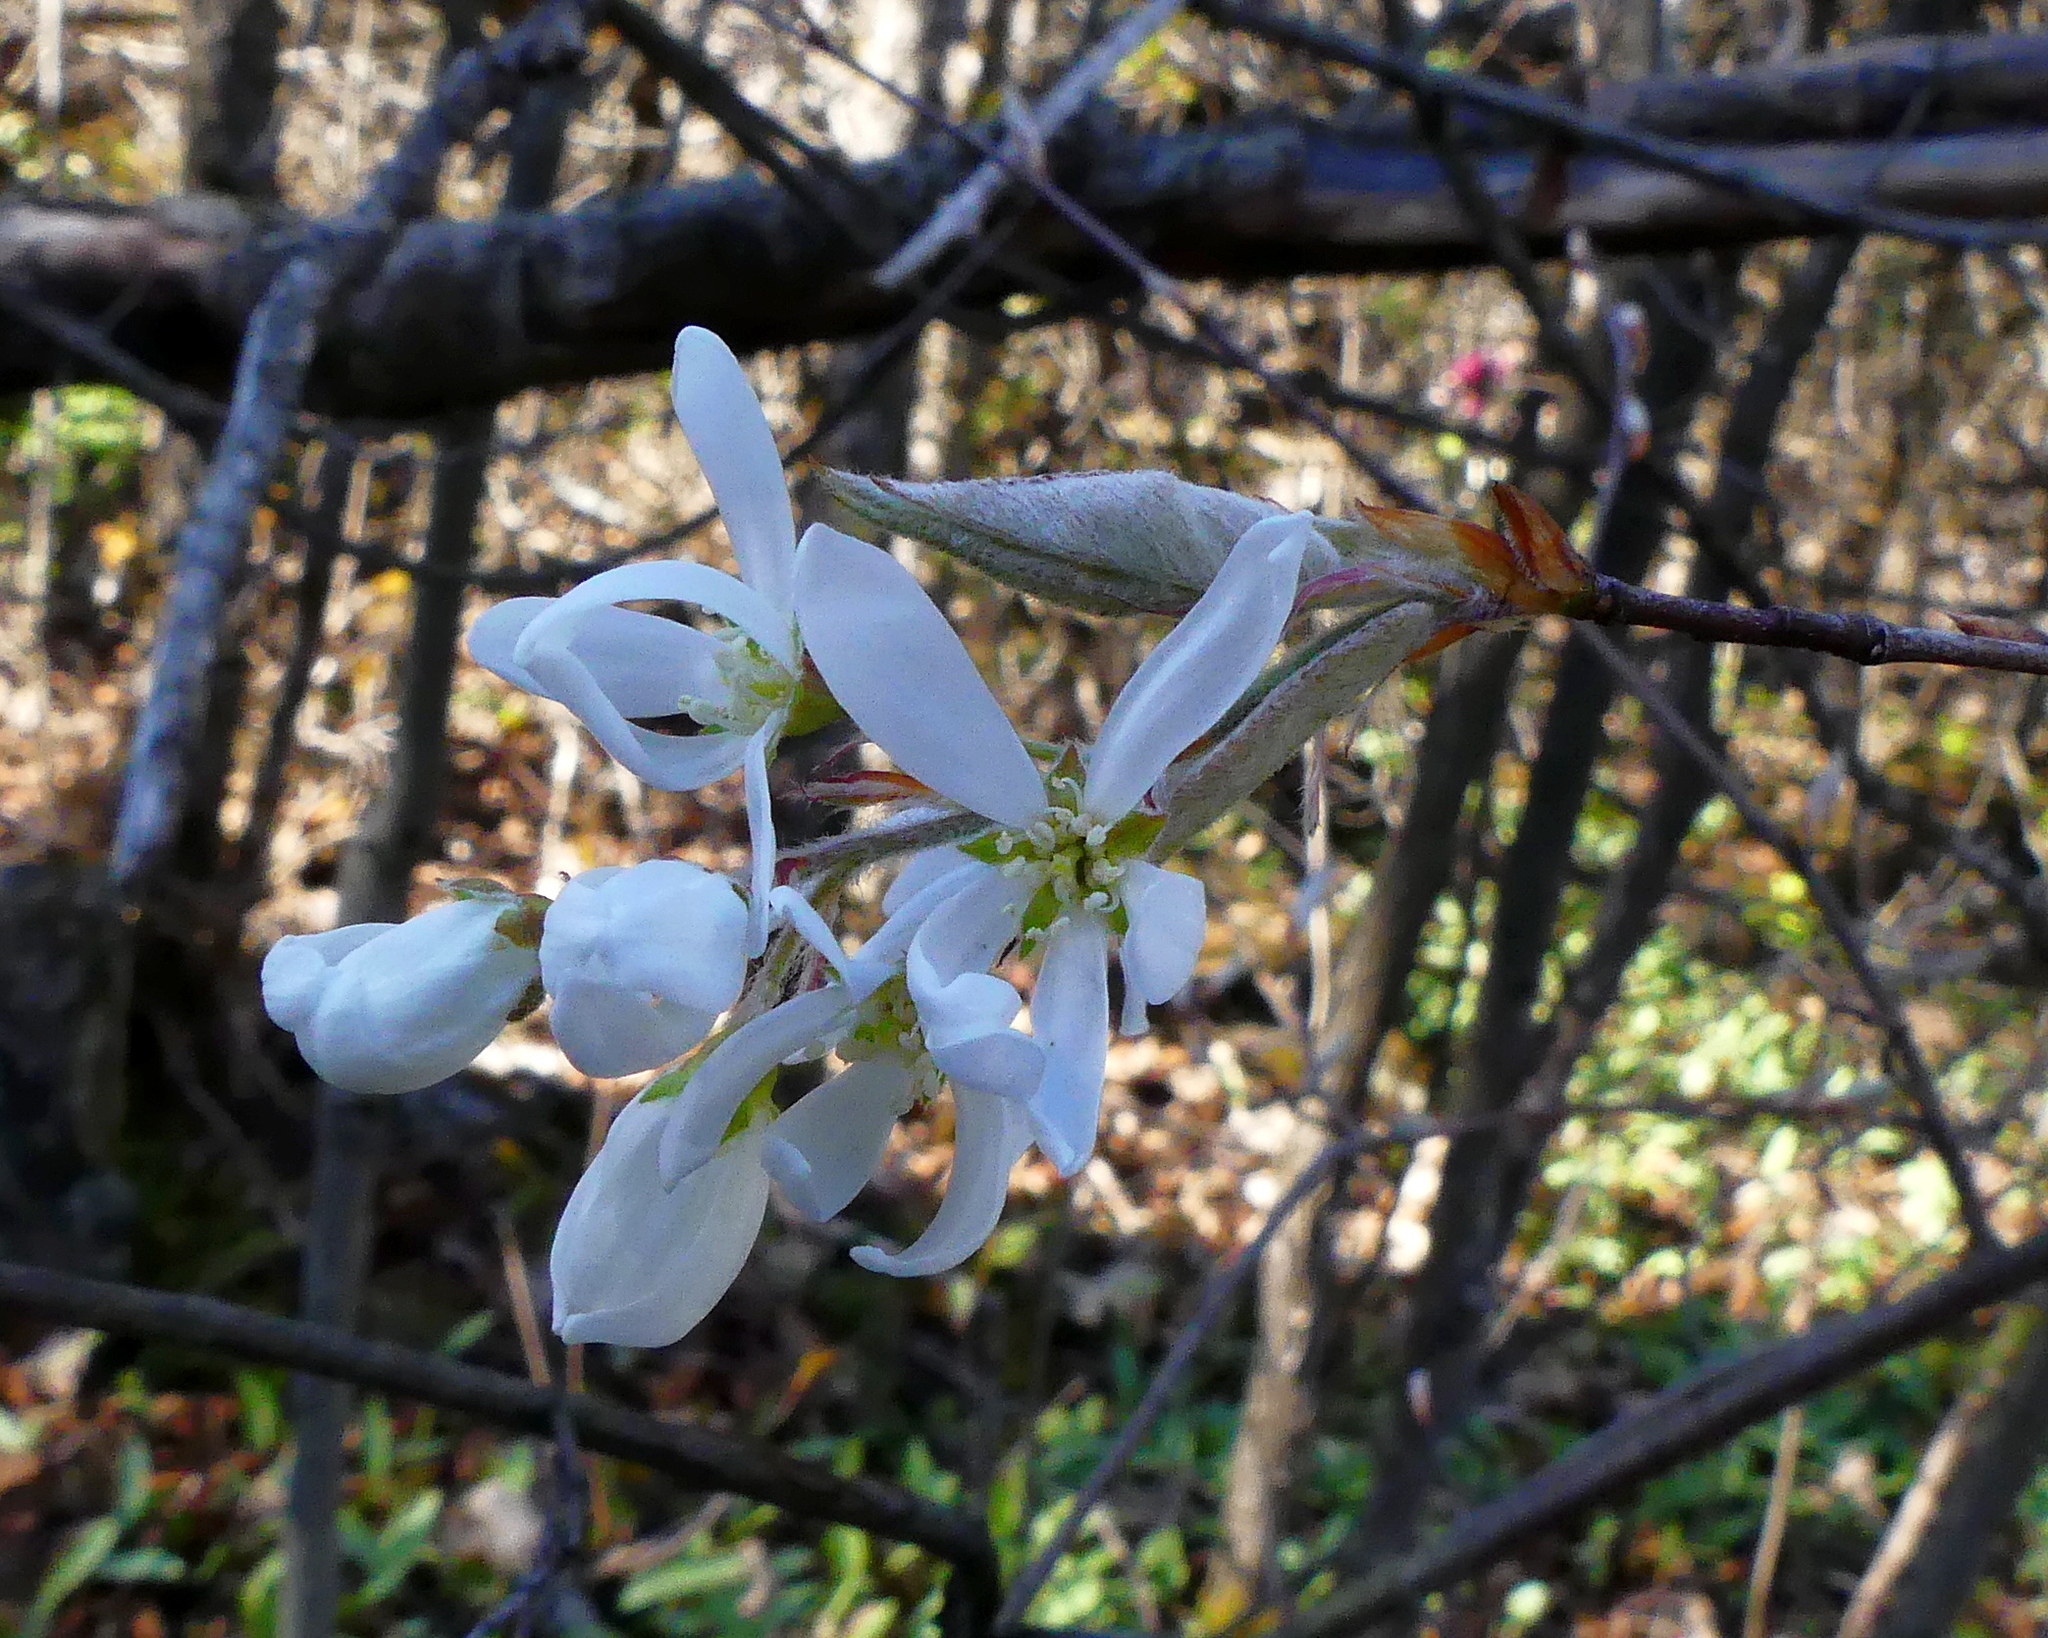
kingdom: Plantae
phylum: Tracheophyta
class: Magnoliopsida
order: Rosales
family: Rosaceae
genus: Amelanchier
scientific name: Amelanchier arborea
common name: Downy serviceberry
